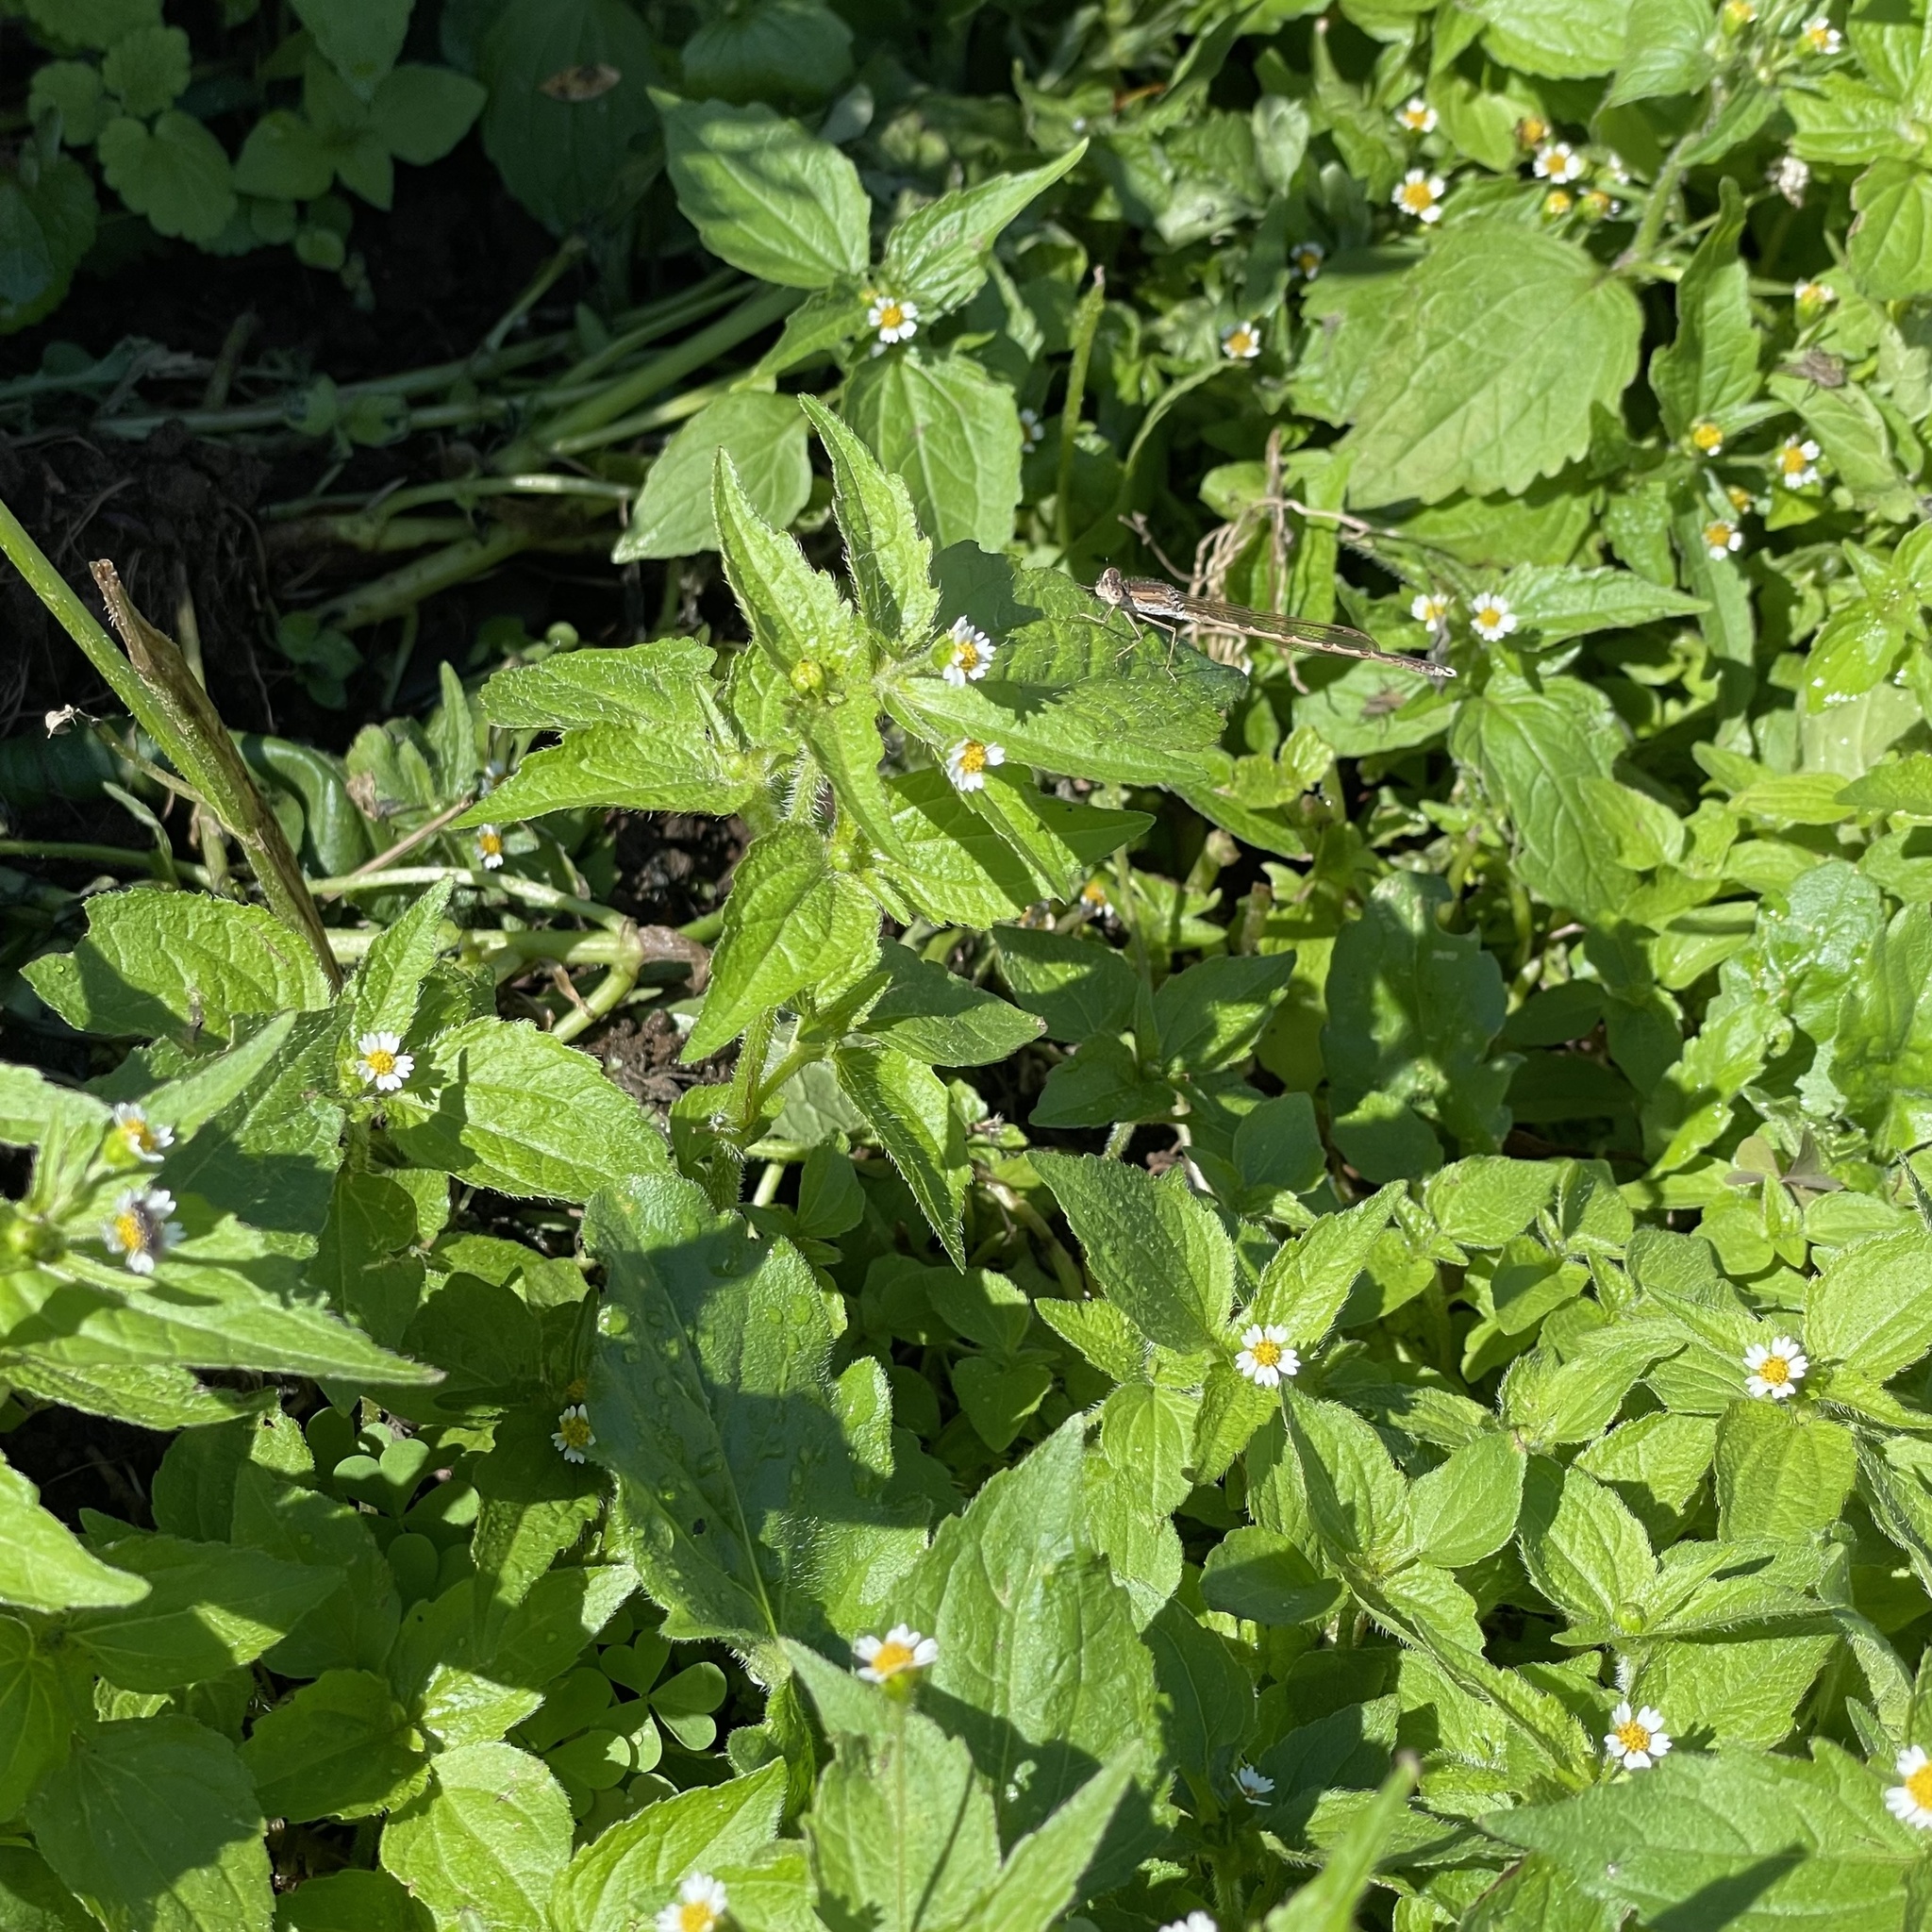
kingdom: Animalia
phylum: Arthropoda
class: Insecta
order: Odonata
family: Lestidae
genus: Sympecma
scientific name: Sympecma paedisca
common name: Siberian winter damsel
